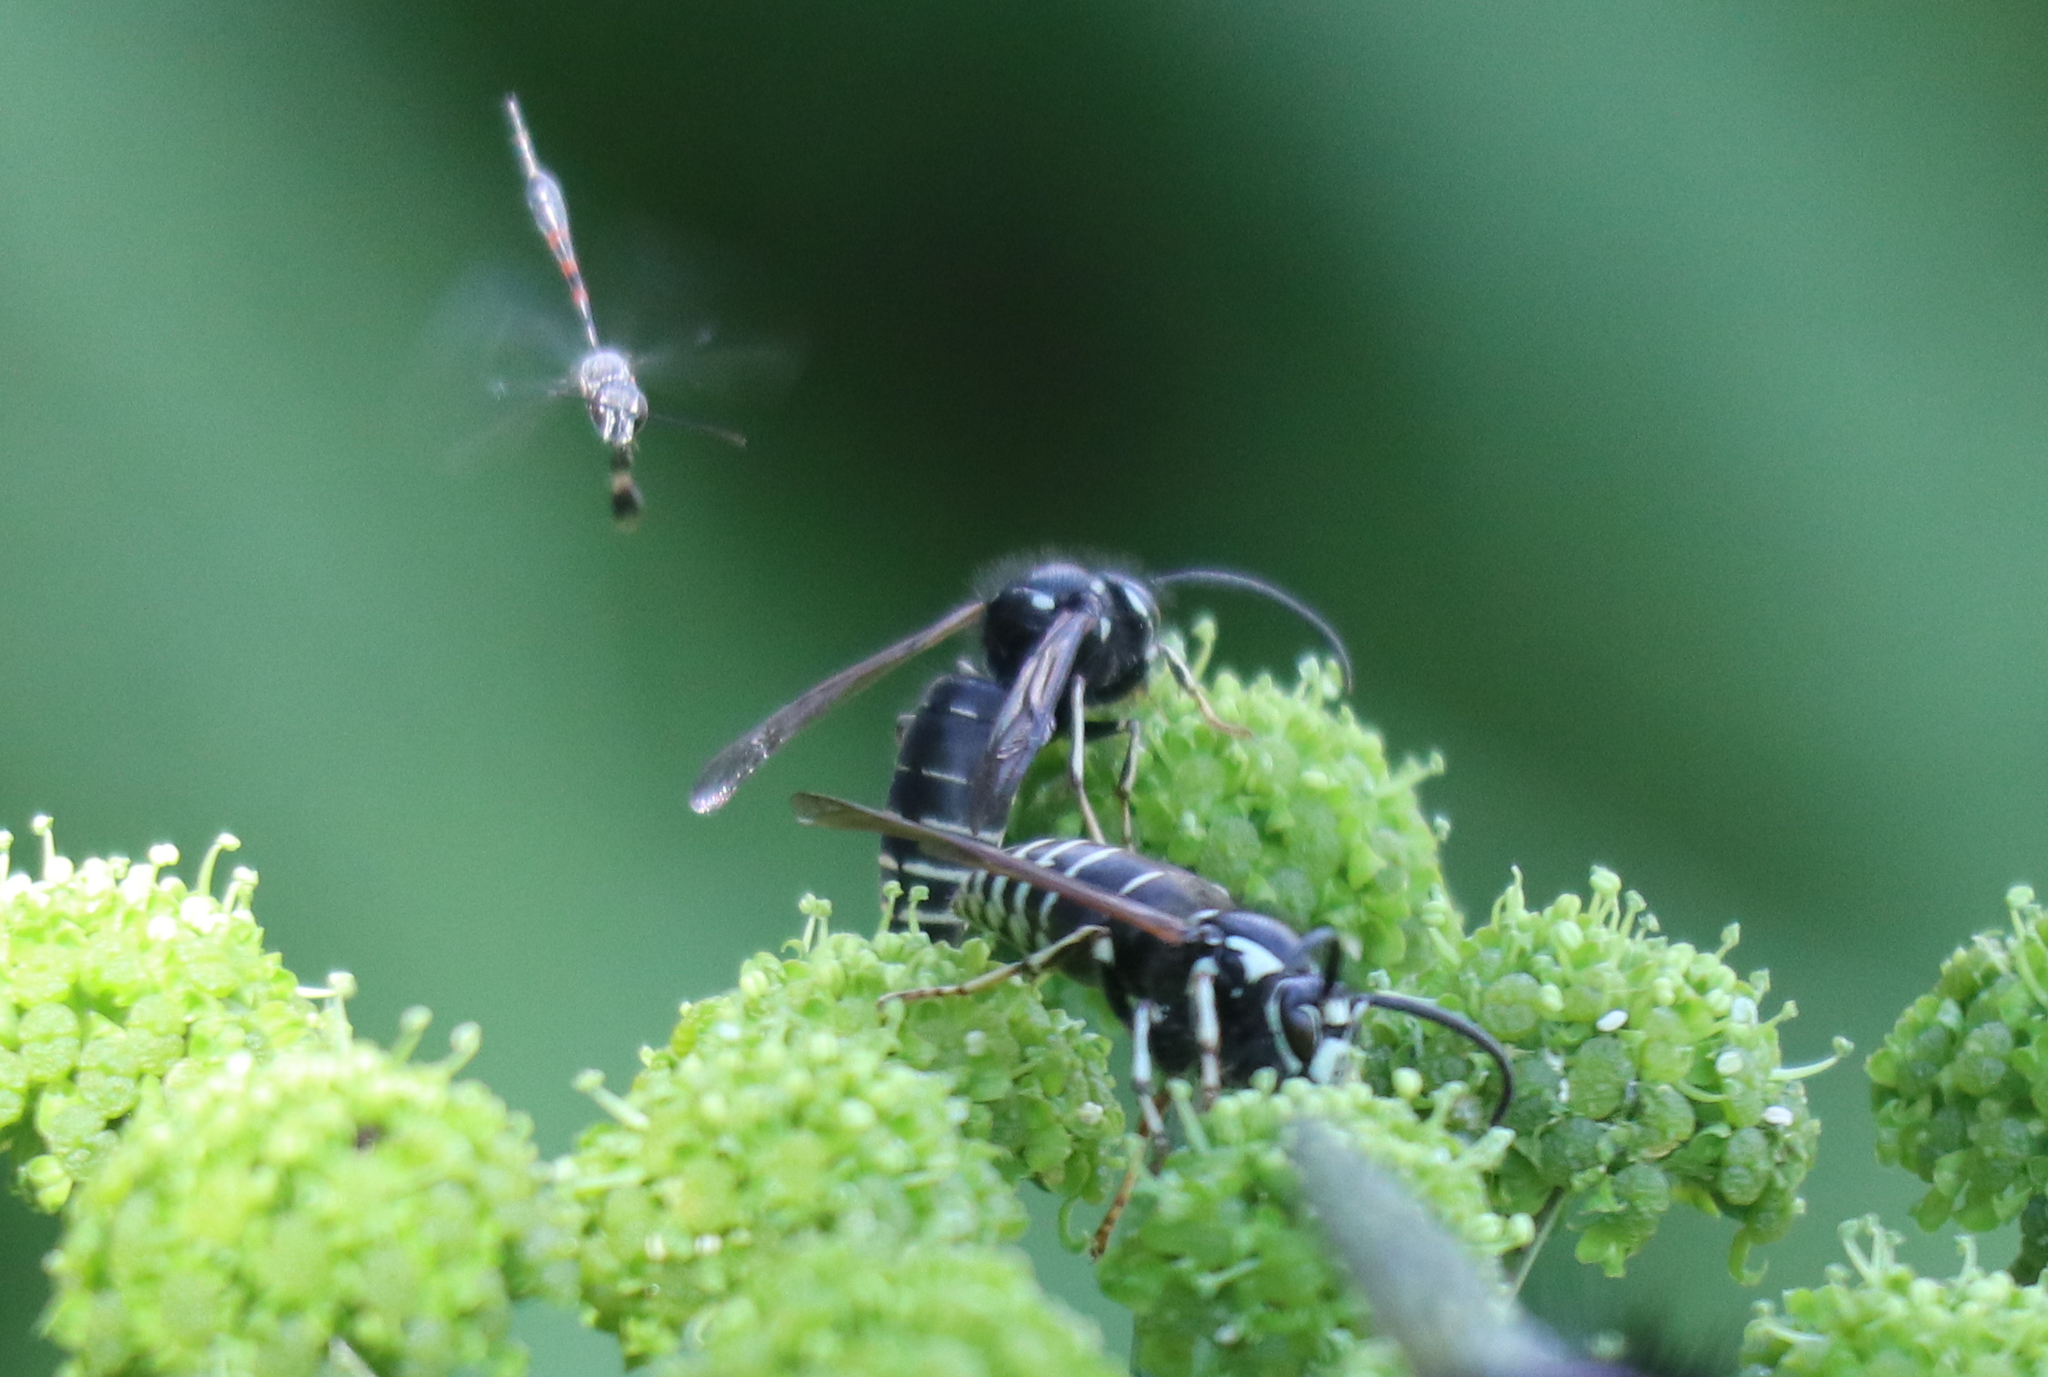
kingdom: Animalia
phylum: Arthropoda
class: Insecta
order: Hymenoptera
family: Vespidae
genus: Dolichovespula
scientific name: Dolichovespula adulterina
